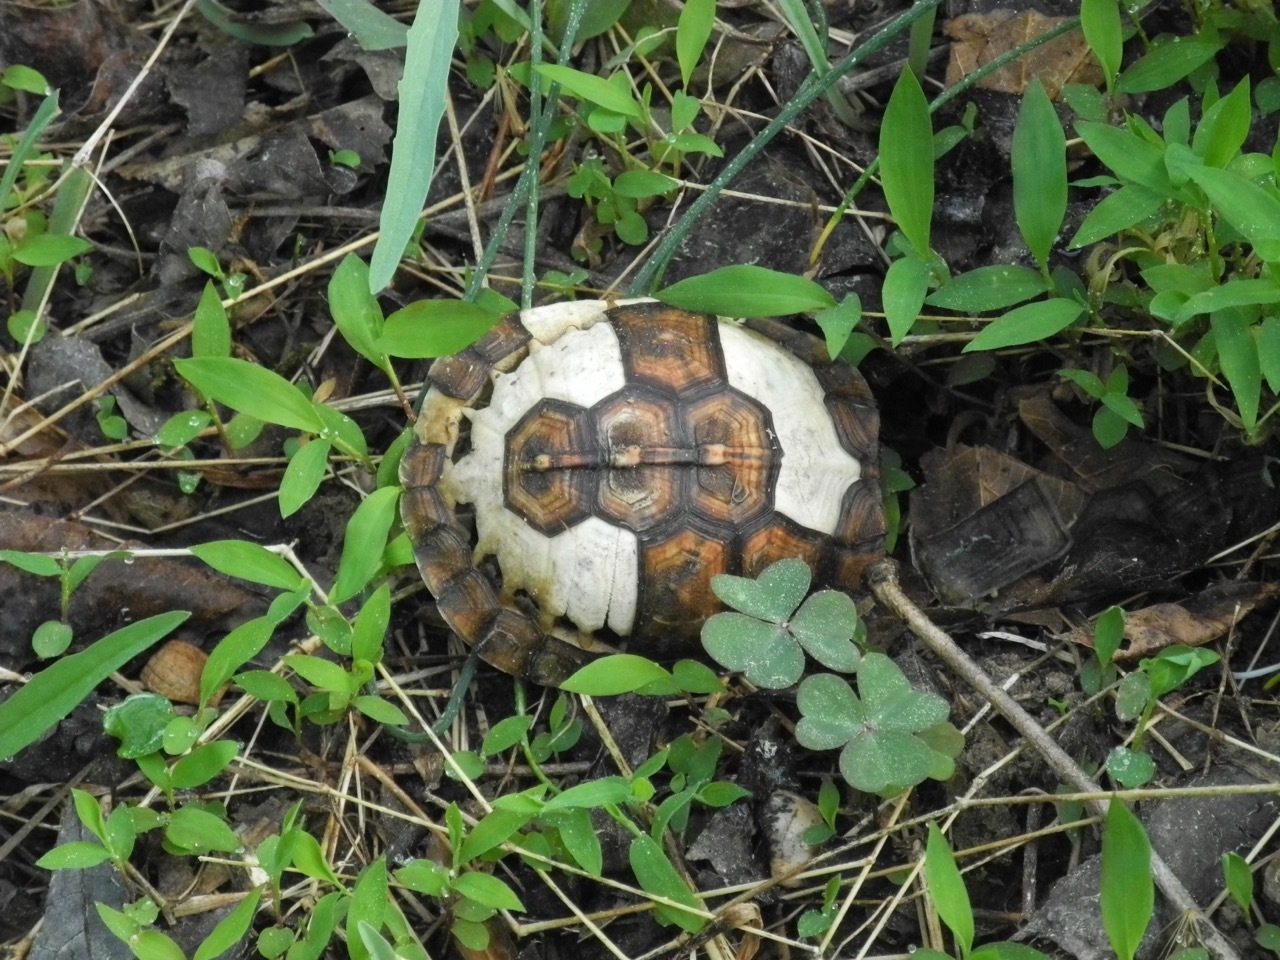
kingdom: Animalia
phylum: Chordata
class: Testudines
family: Emydidae
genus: Terrapene
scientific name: Terrapene carolina
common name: Common box turtle
